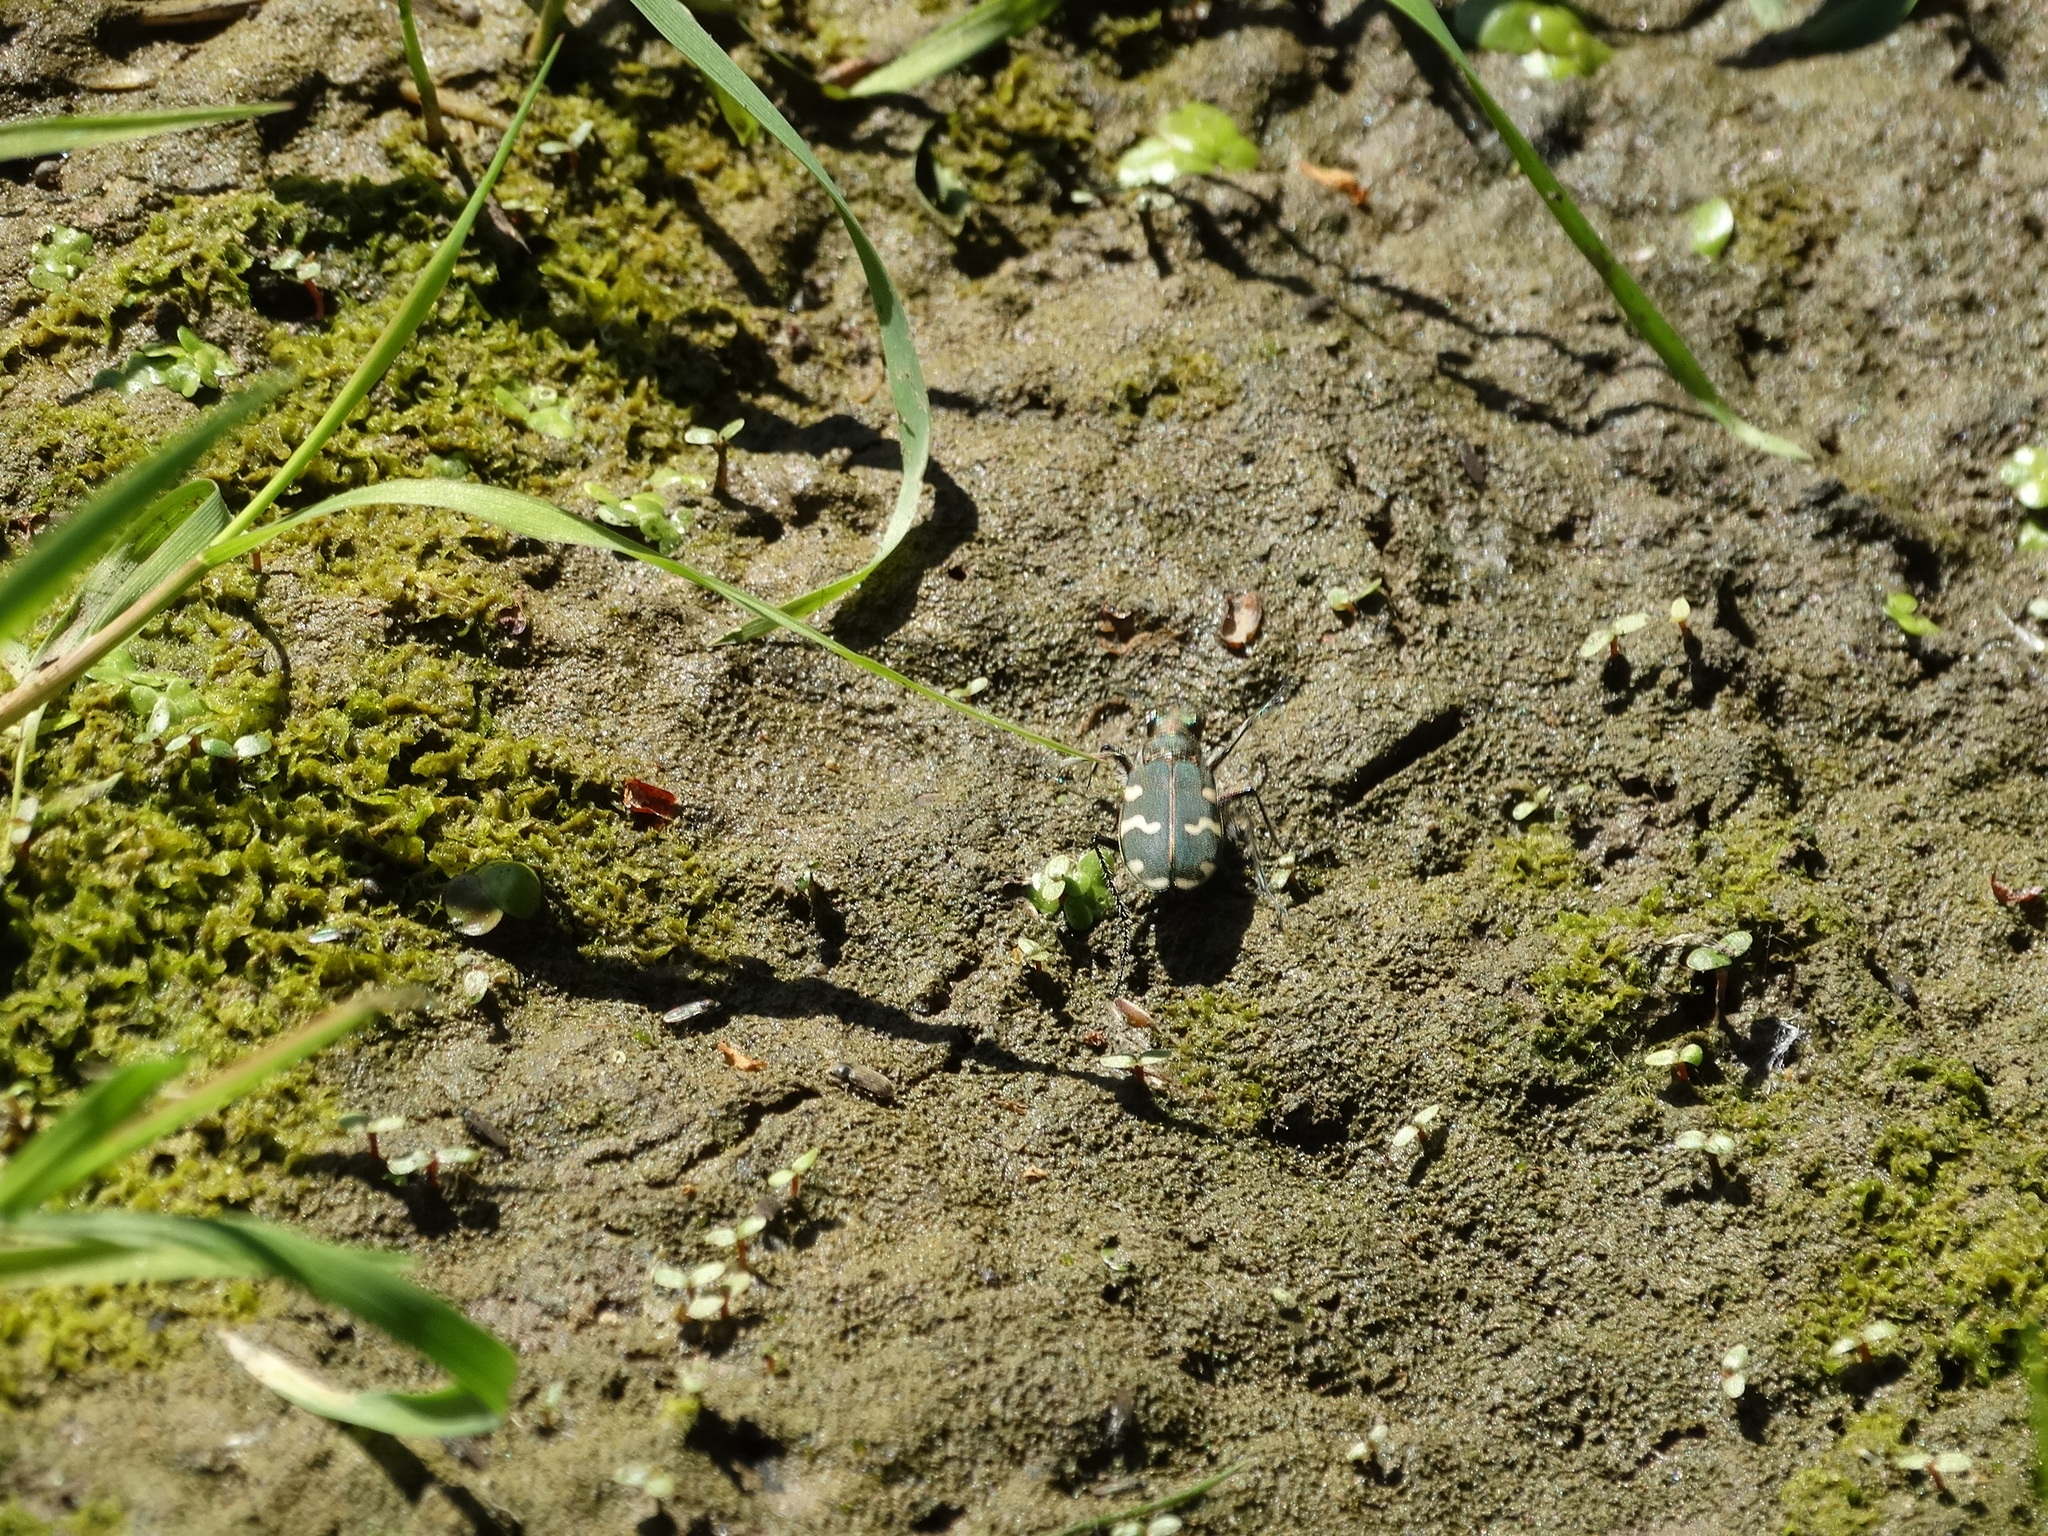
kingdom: Animalia
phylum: Arthropoda
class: Insecta
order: Coleoptera
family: Carabidae
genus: Cicindela
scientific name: Cicindela hybrida
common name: Northern dune tiger beetle
